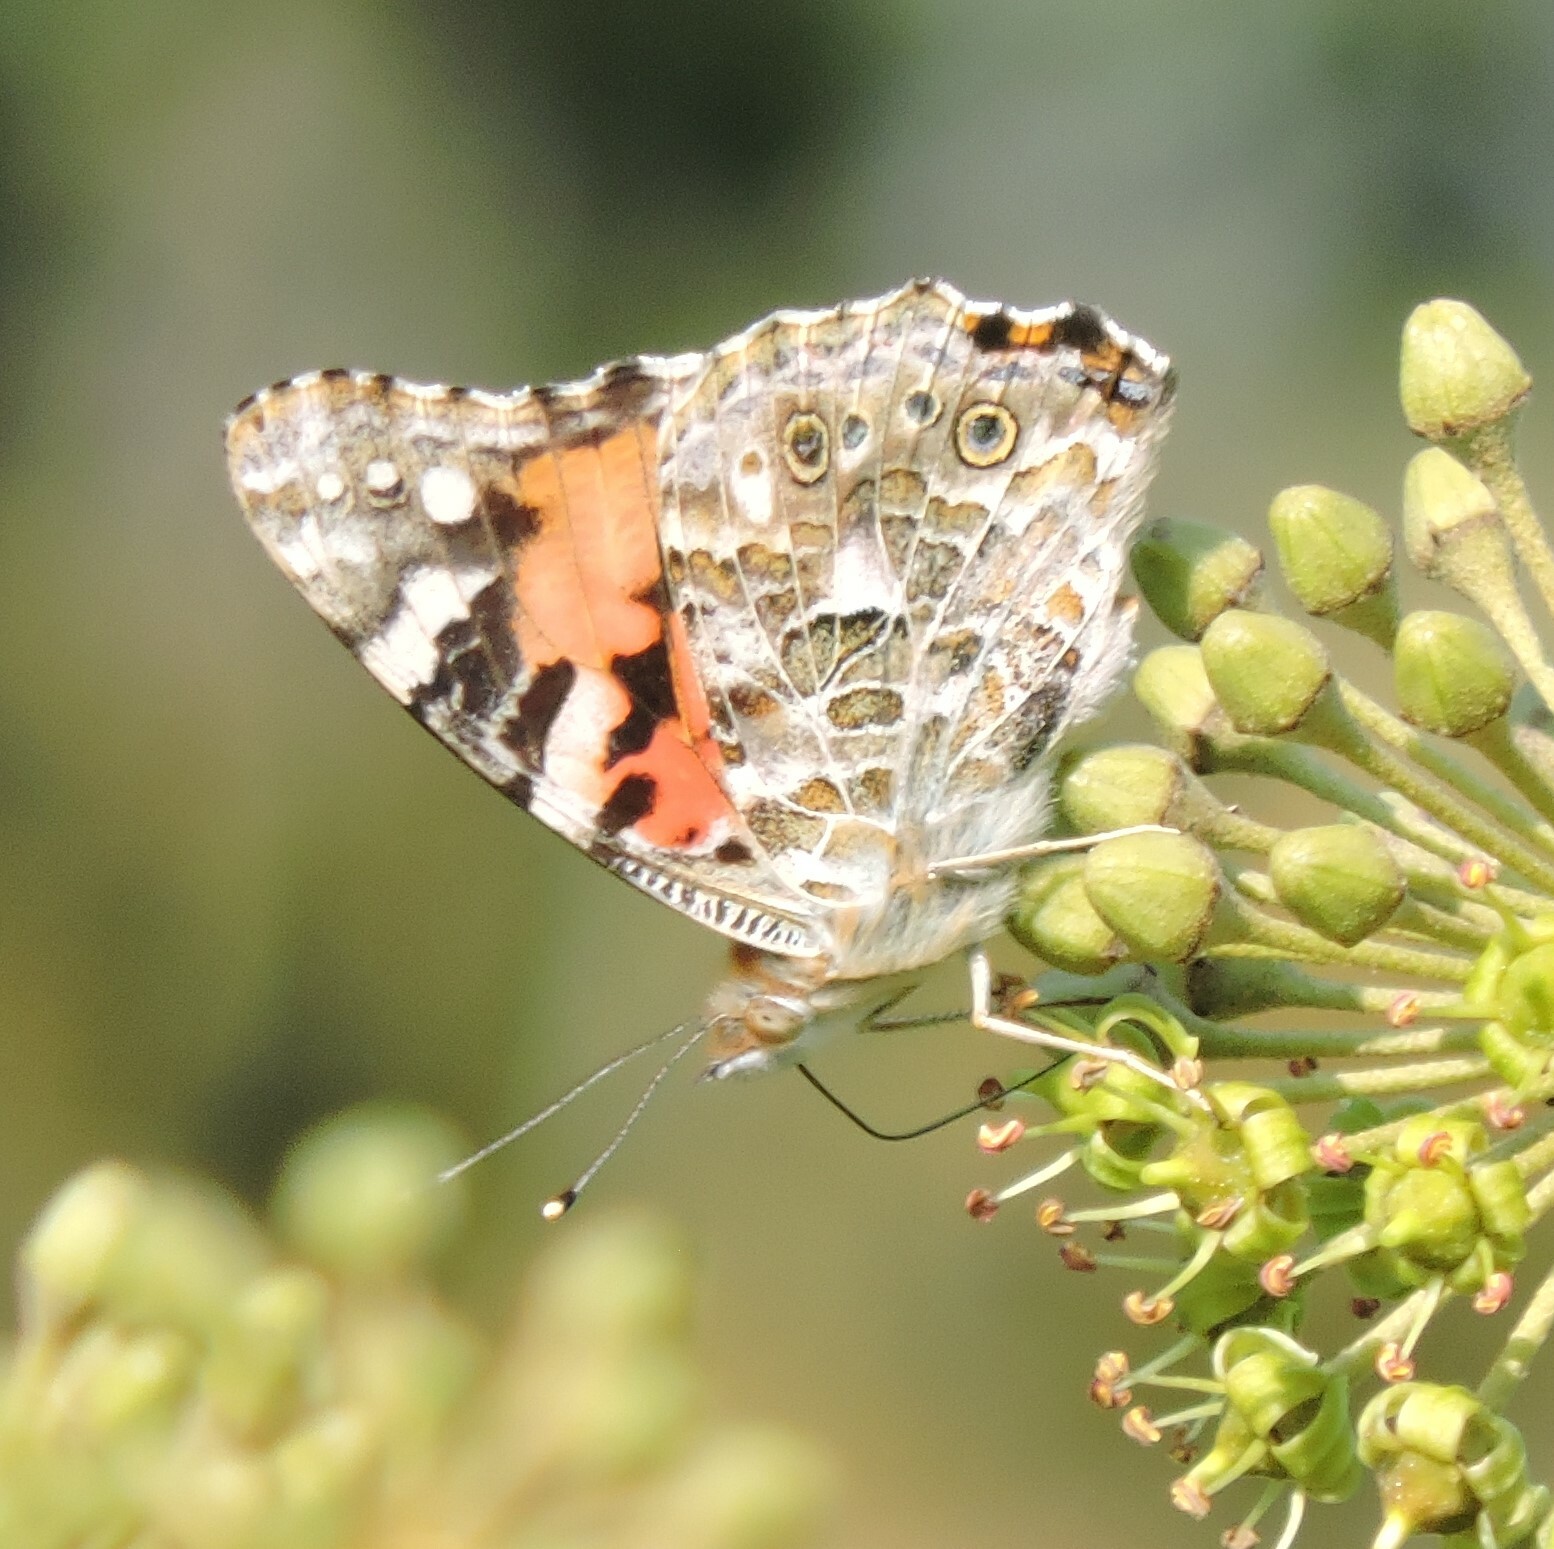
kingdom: Animalia
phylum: Arthropoda
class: Insecta
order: Lepidoptera
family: Nymphalidae
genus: Vanessa
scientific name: Vanessa cardui
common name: Painted lady
